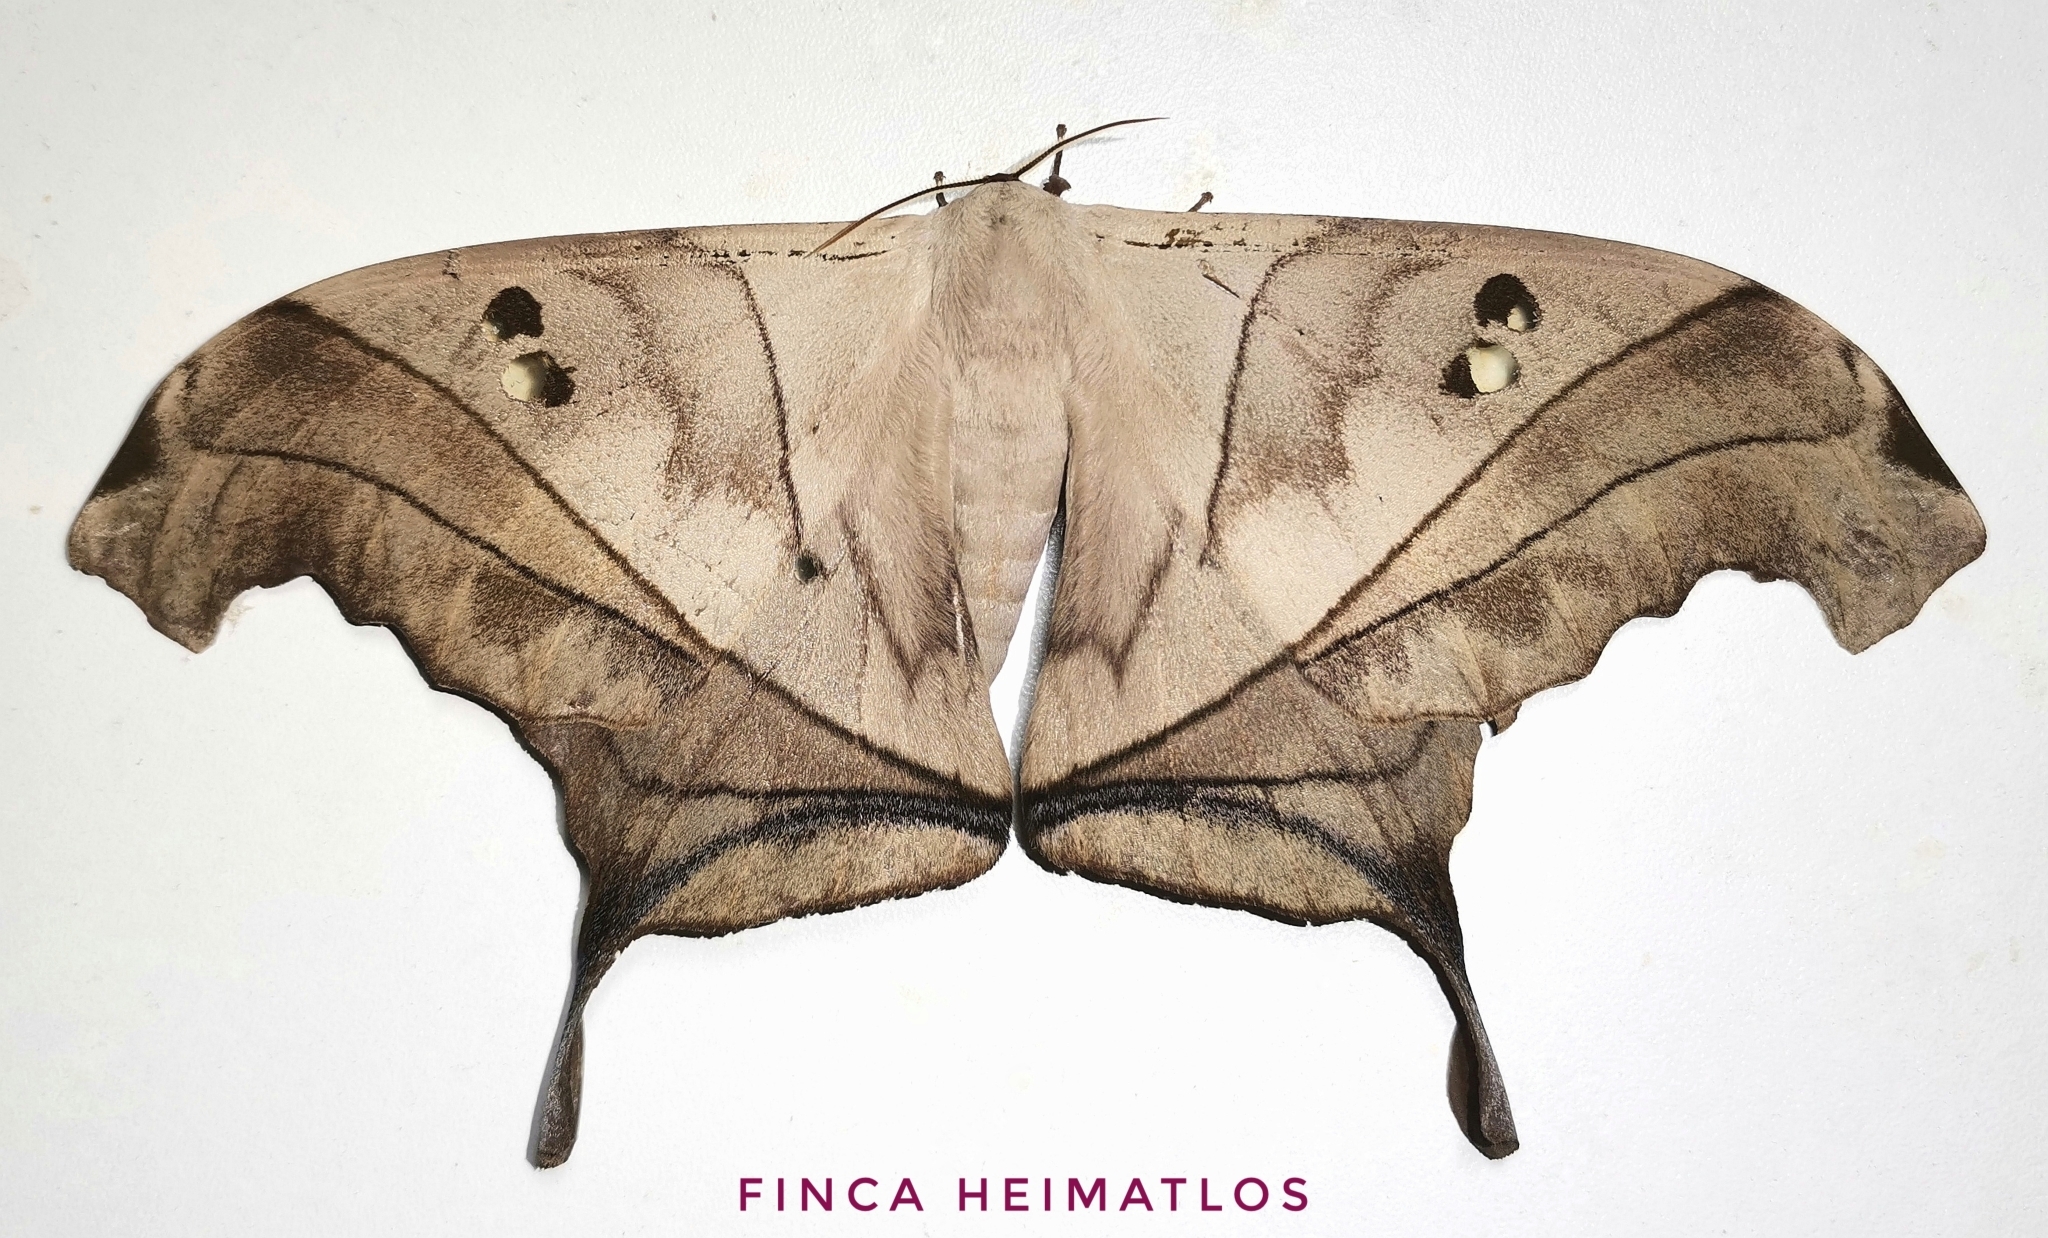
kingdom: Animalia
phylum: Arthropoda
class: Insecta
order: Lepidoptera
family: Saturniidae
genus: Dysdaemonia
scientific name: Dysdaemonia australoboreas
